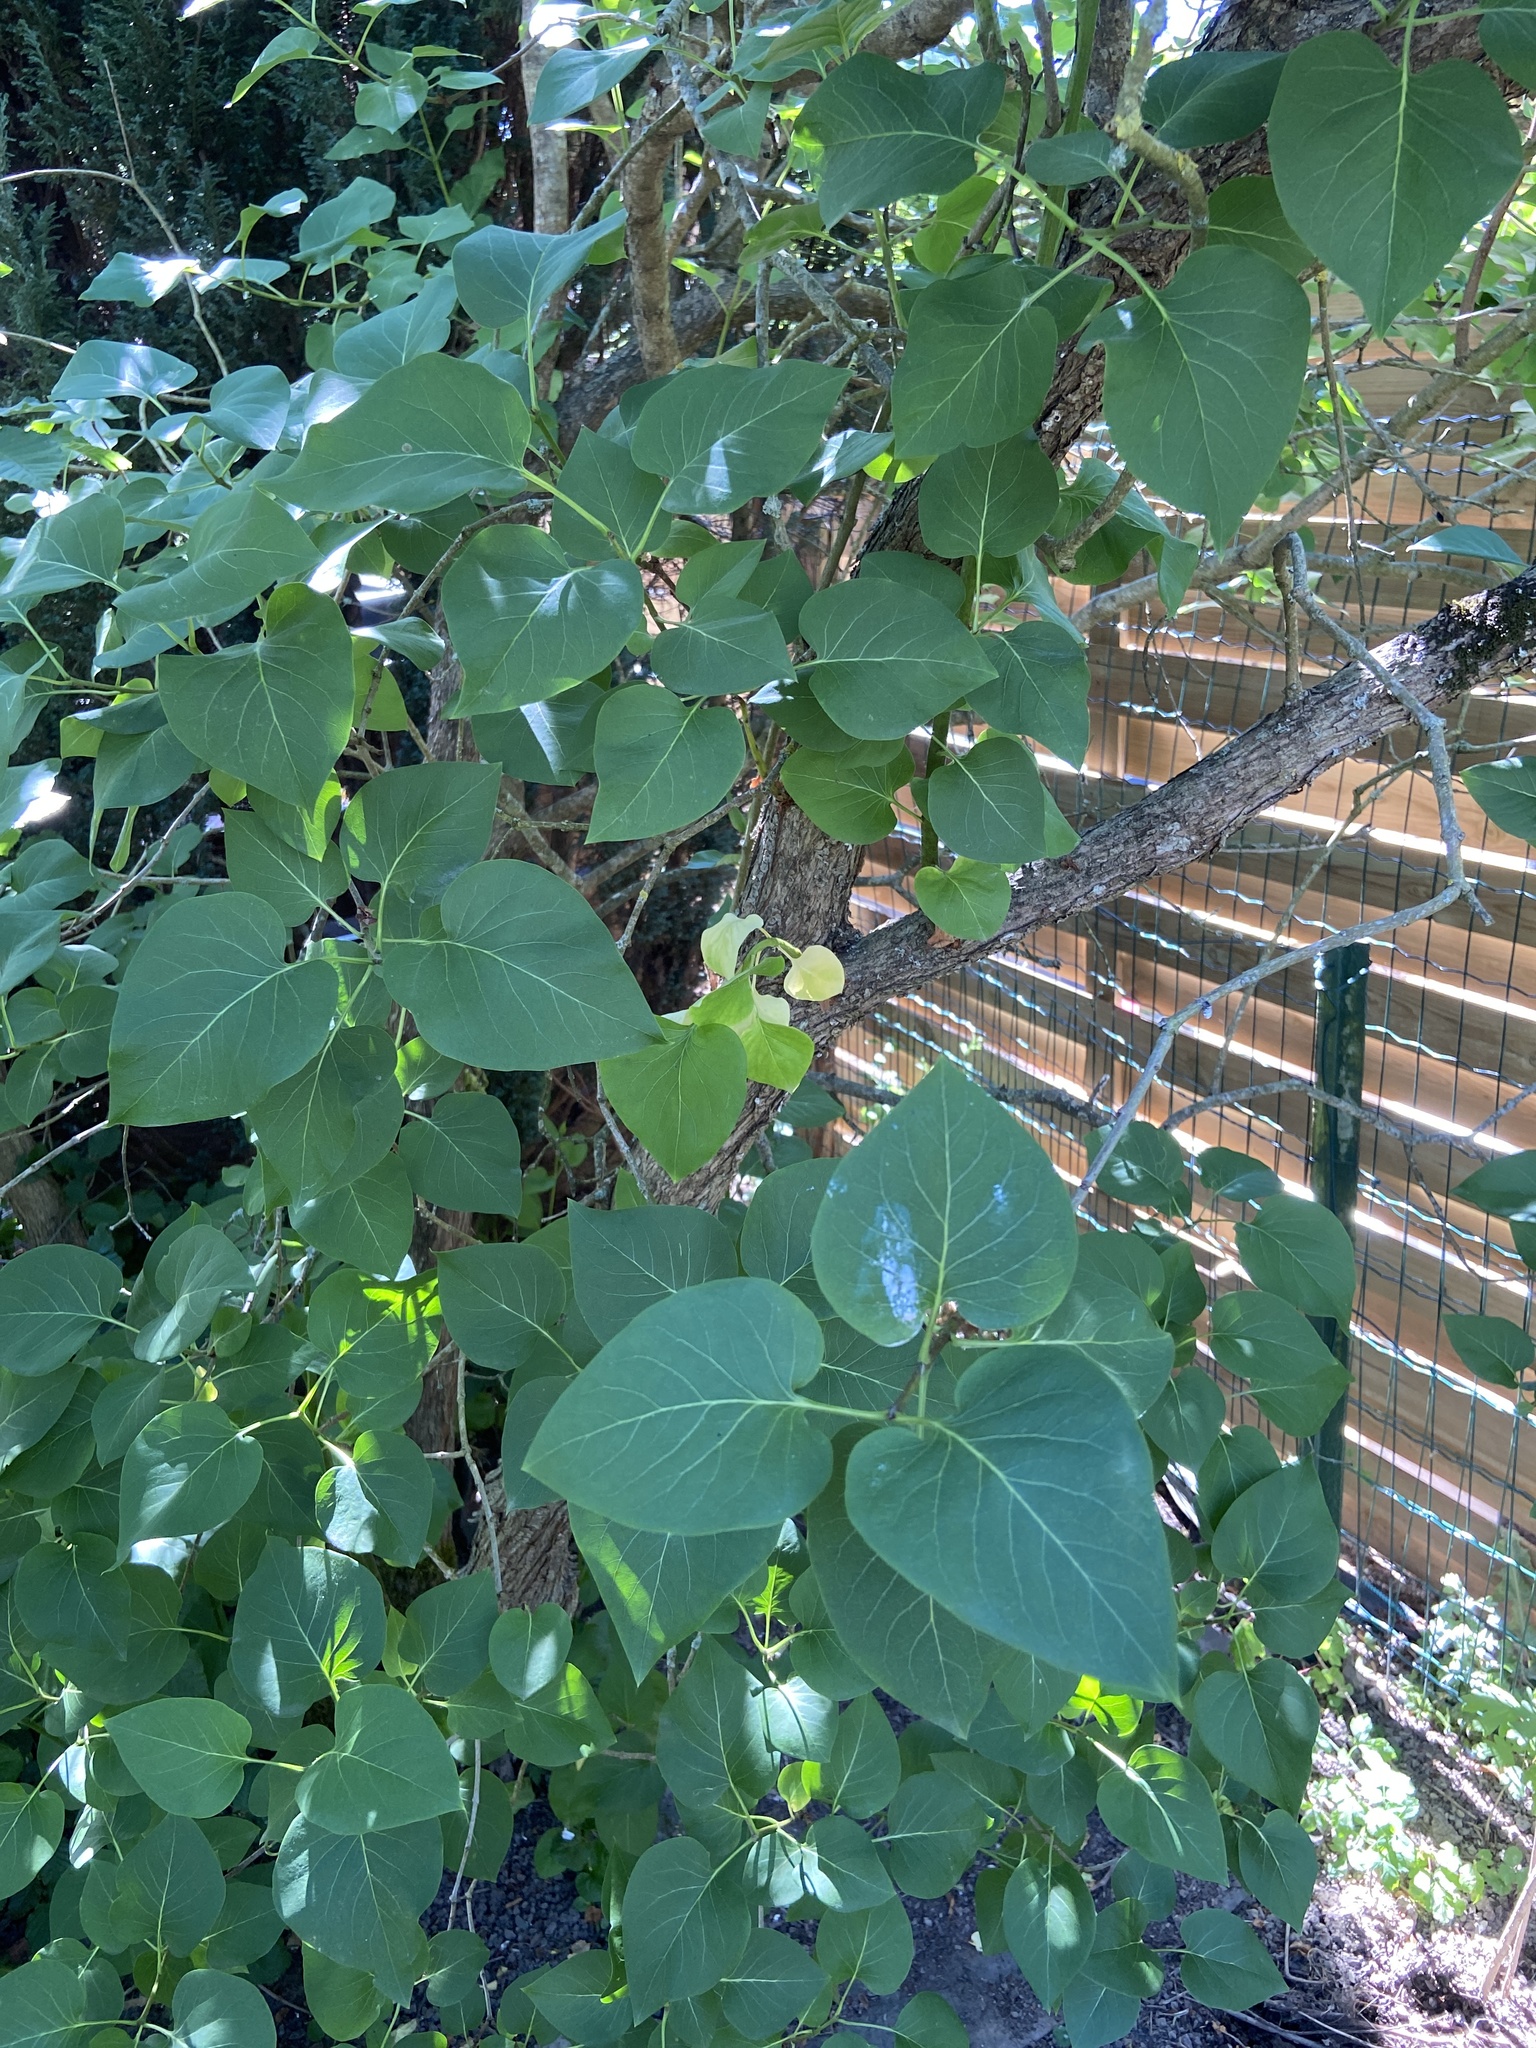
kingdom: Plantae
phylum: Tracheophyta
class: Magnoliopsida
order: Lamiales
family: Oleaceae
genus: Syringa
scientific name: Syringa vulgaris
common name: Common lilac
